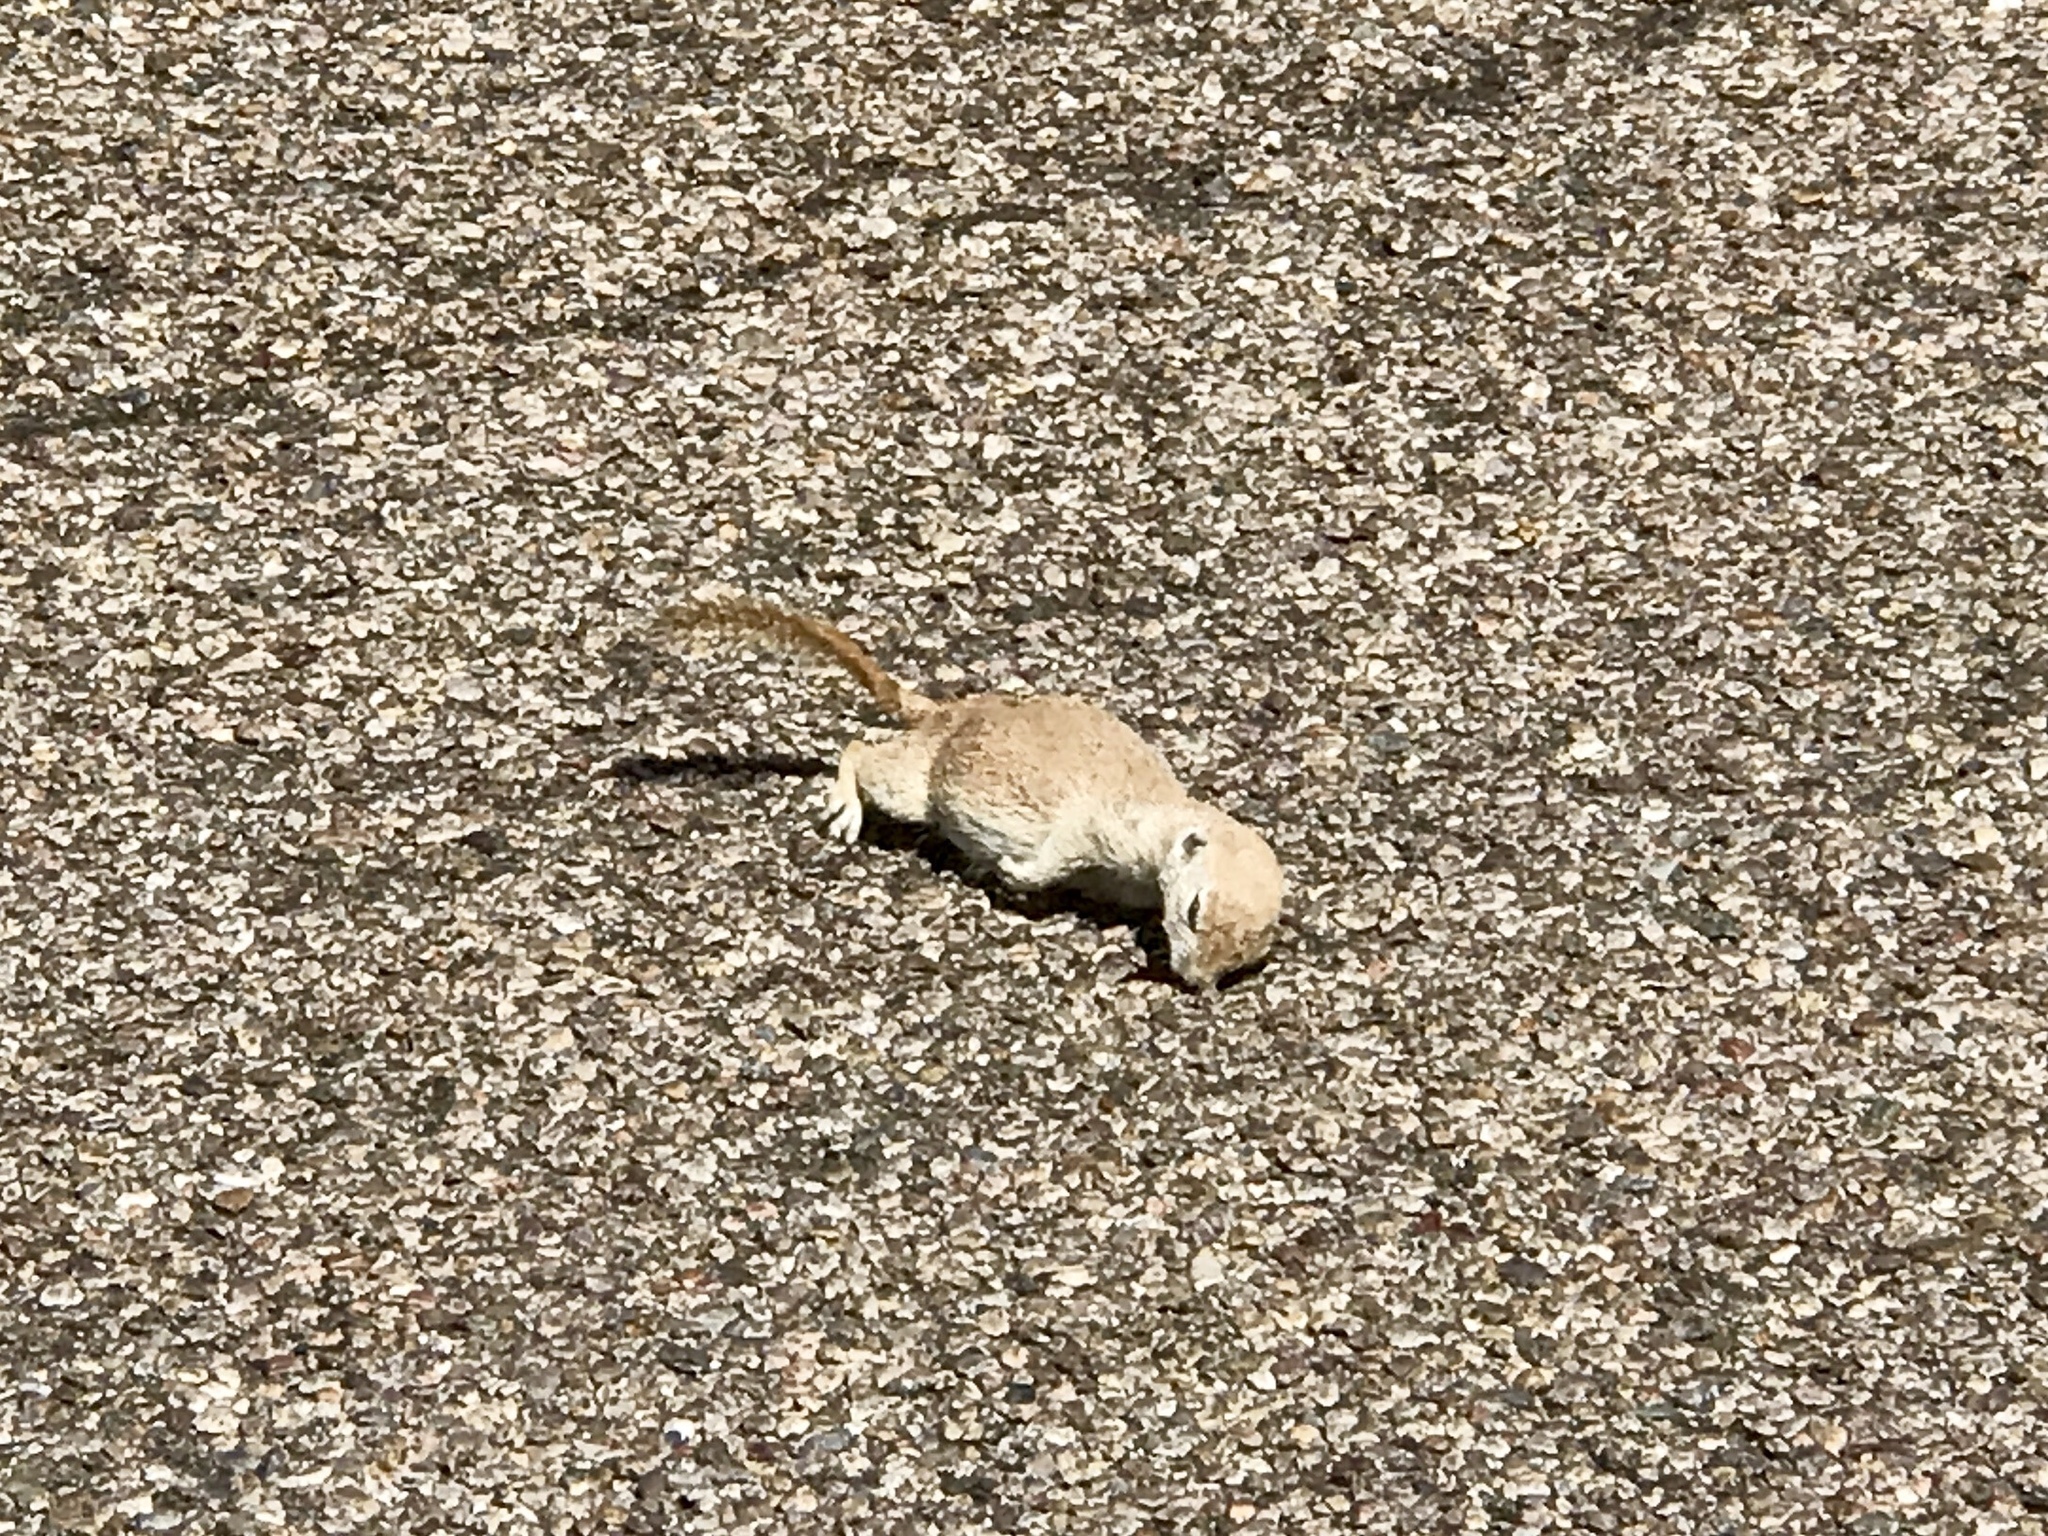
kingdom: Animalia
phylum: Chordata
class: Mammalia
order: Rodentia
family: Sciuridae
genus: Xerospermophilus
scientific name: Xerospermophilus tereticaudus
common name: Round-tailed ground squirrel
